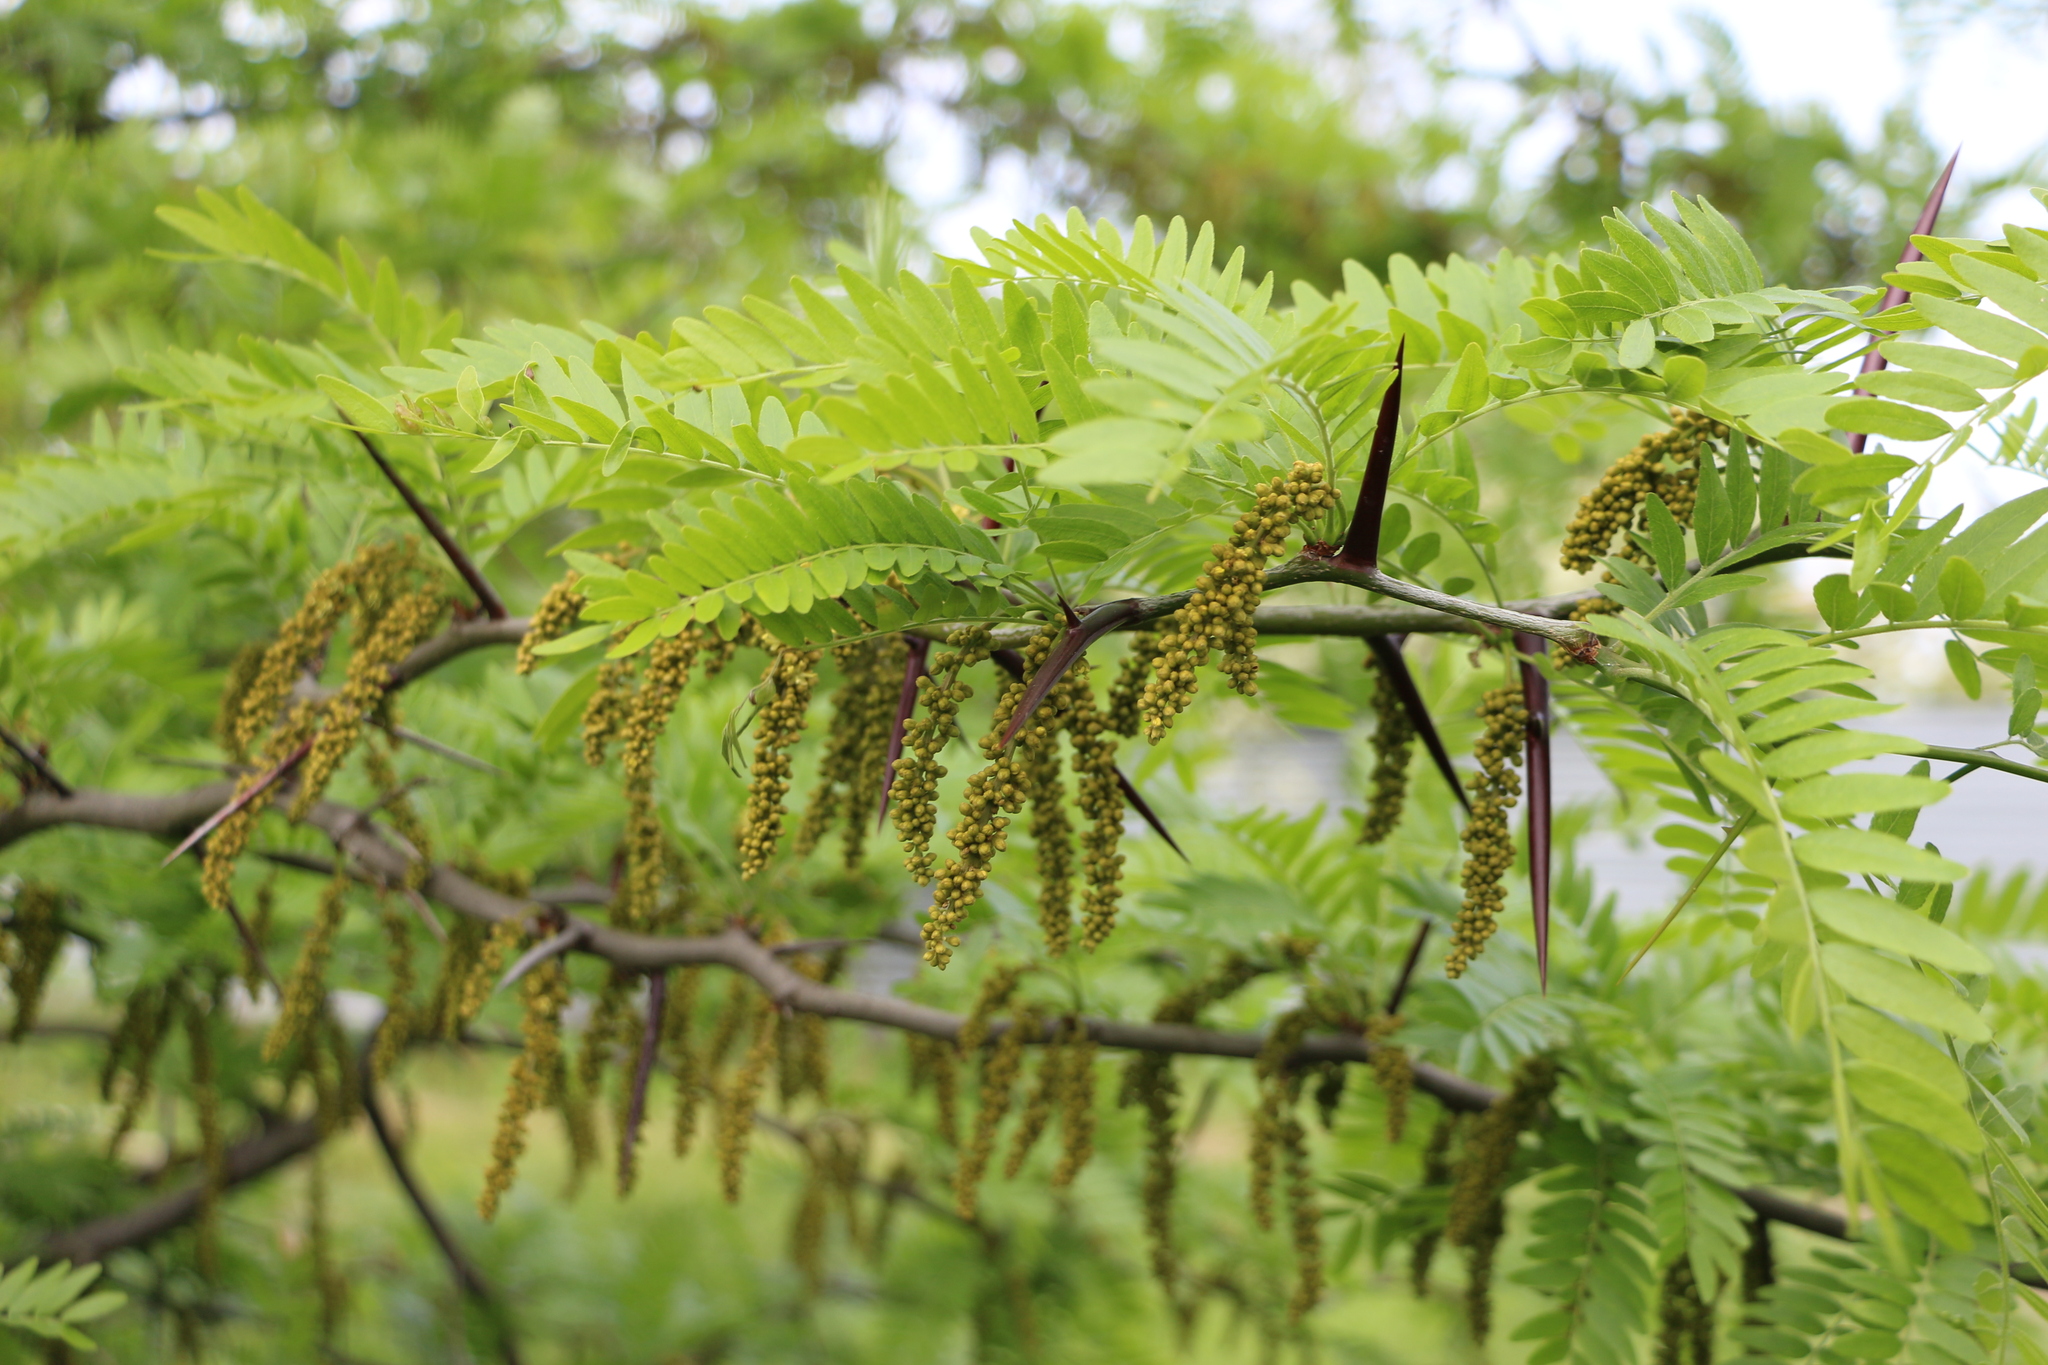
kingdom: Plantae
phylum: Tracheophyta
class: Magnoliopsida
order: Fabales
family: Fabaceae
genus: Gleditsia
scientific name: Gleditsia triacanthos
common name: Common honeylocust
